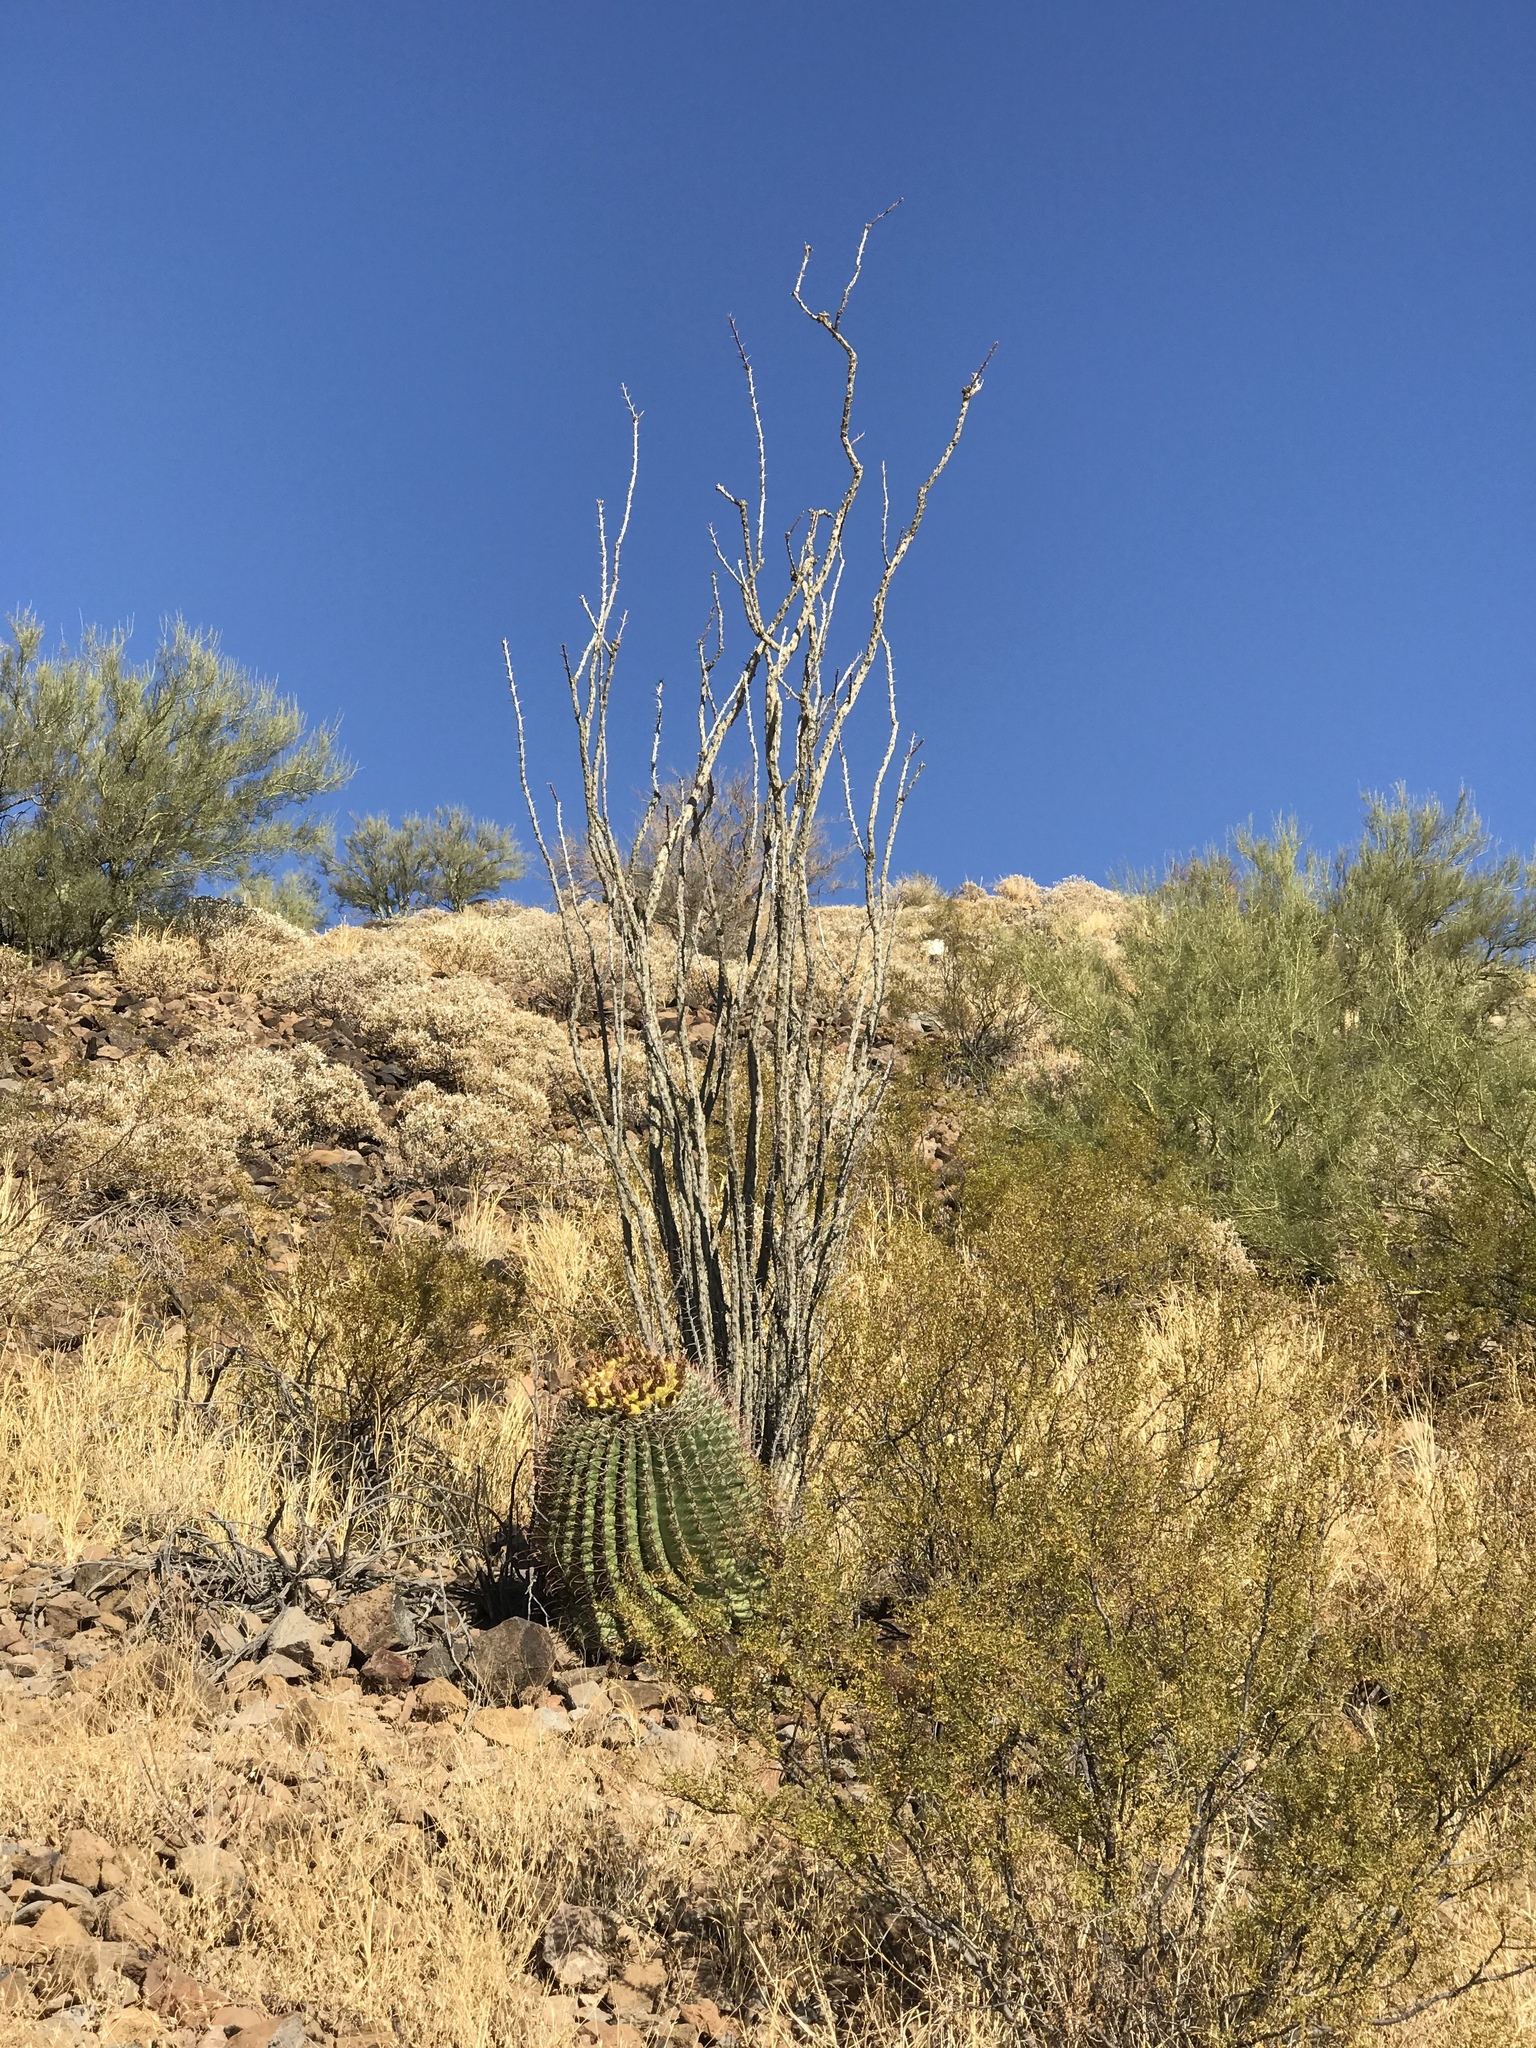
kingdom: Plantae
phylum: Tracheophyta
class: Magnoliopsida
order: Ericales
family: Fouquieriaceae
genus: Fouquieria
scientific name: Fouquieria splendens
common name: Vine-cactus
